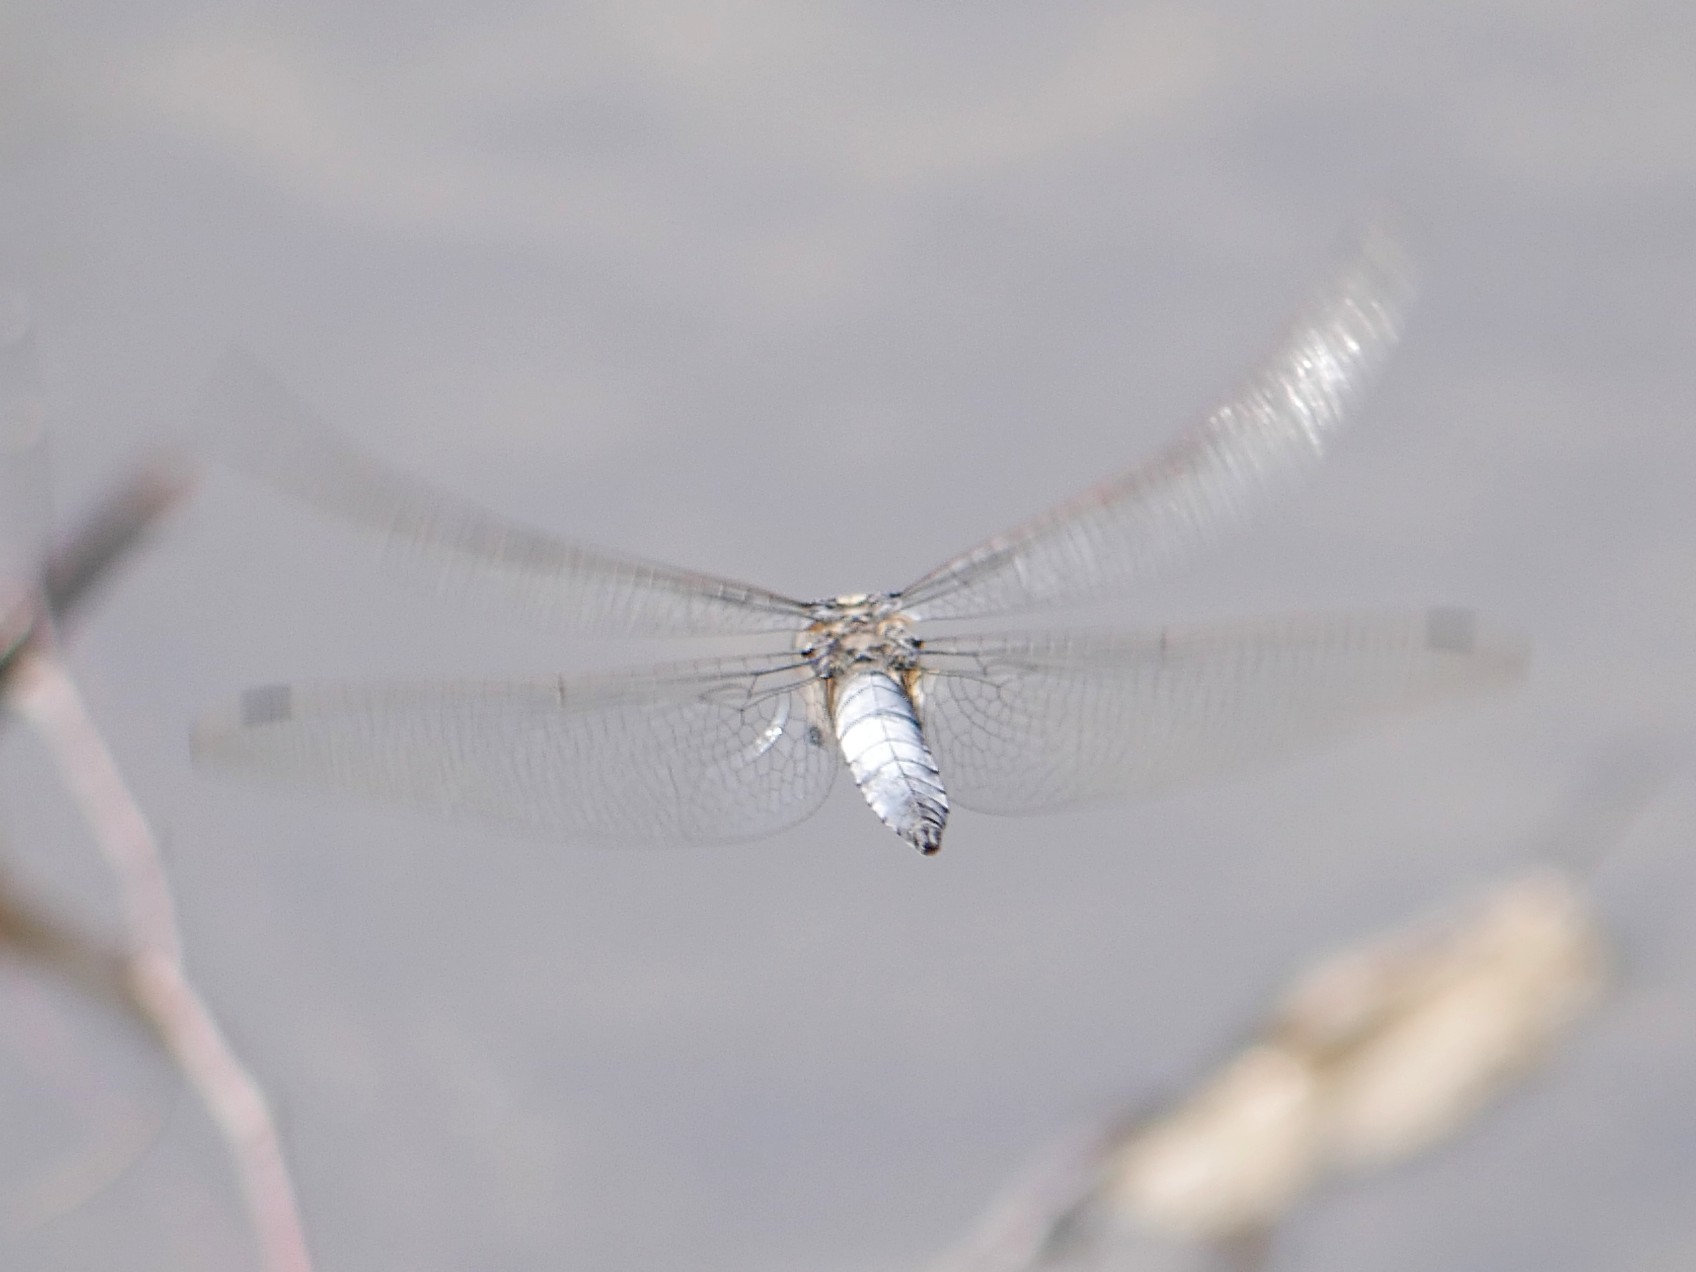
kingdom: Animalia
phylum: Arthropoda
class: Insecta
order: Odonata
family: Libellulidae
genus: Orthetrum
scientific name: Orthetrum cancellatum
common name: Black-tailed skimmer
